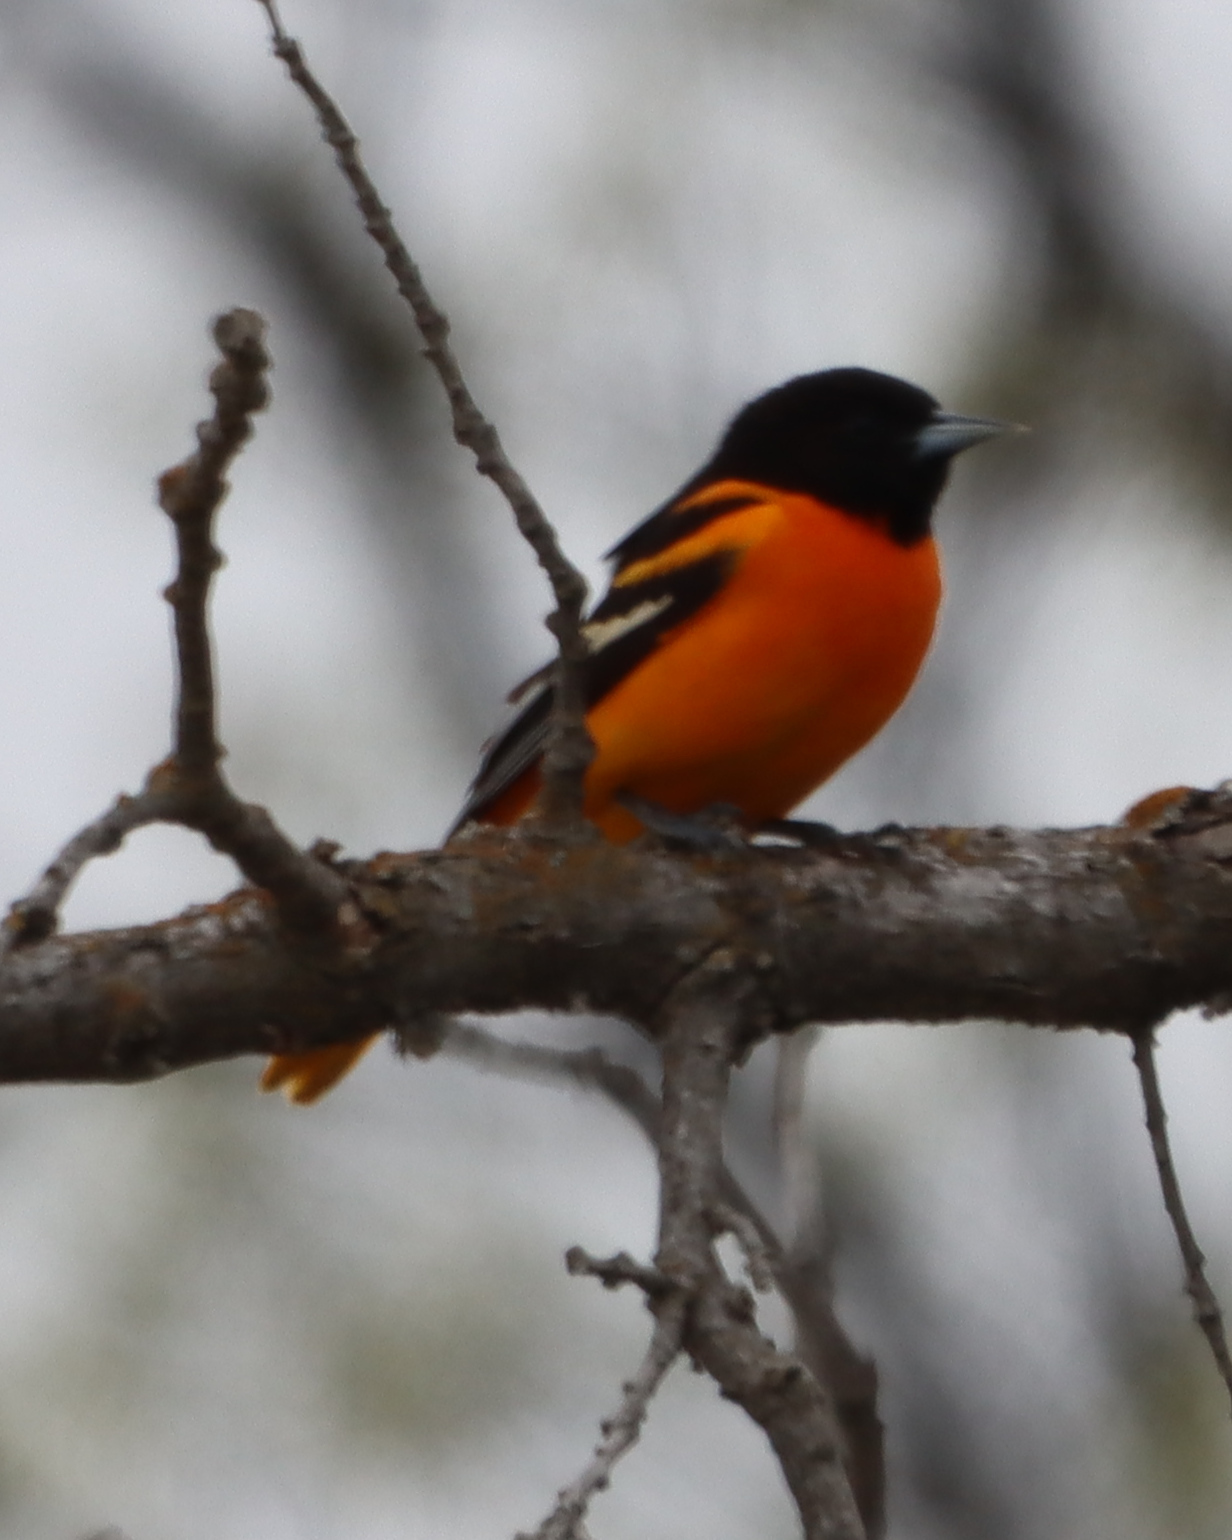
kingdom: Animalia
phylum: Chordata
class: Aves
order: Passeriformes
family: Icteridae
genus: Icterus
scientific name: Icterus galbula
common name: Baltimore oriole
